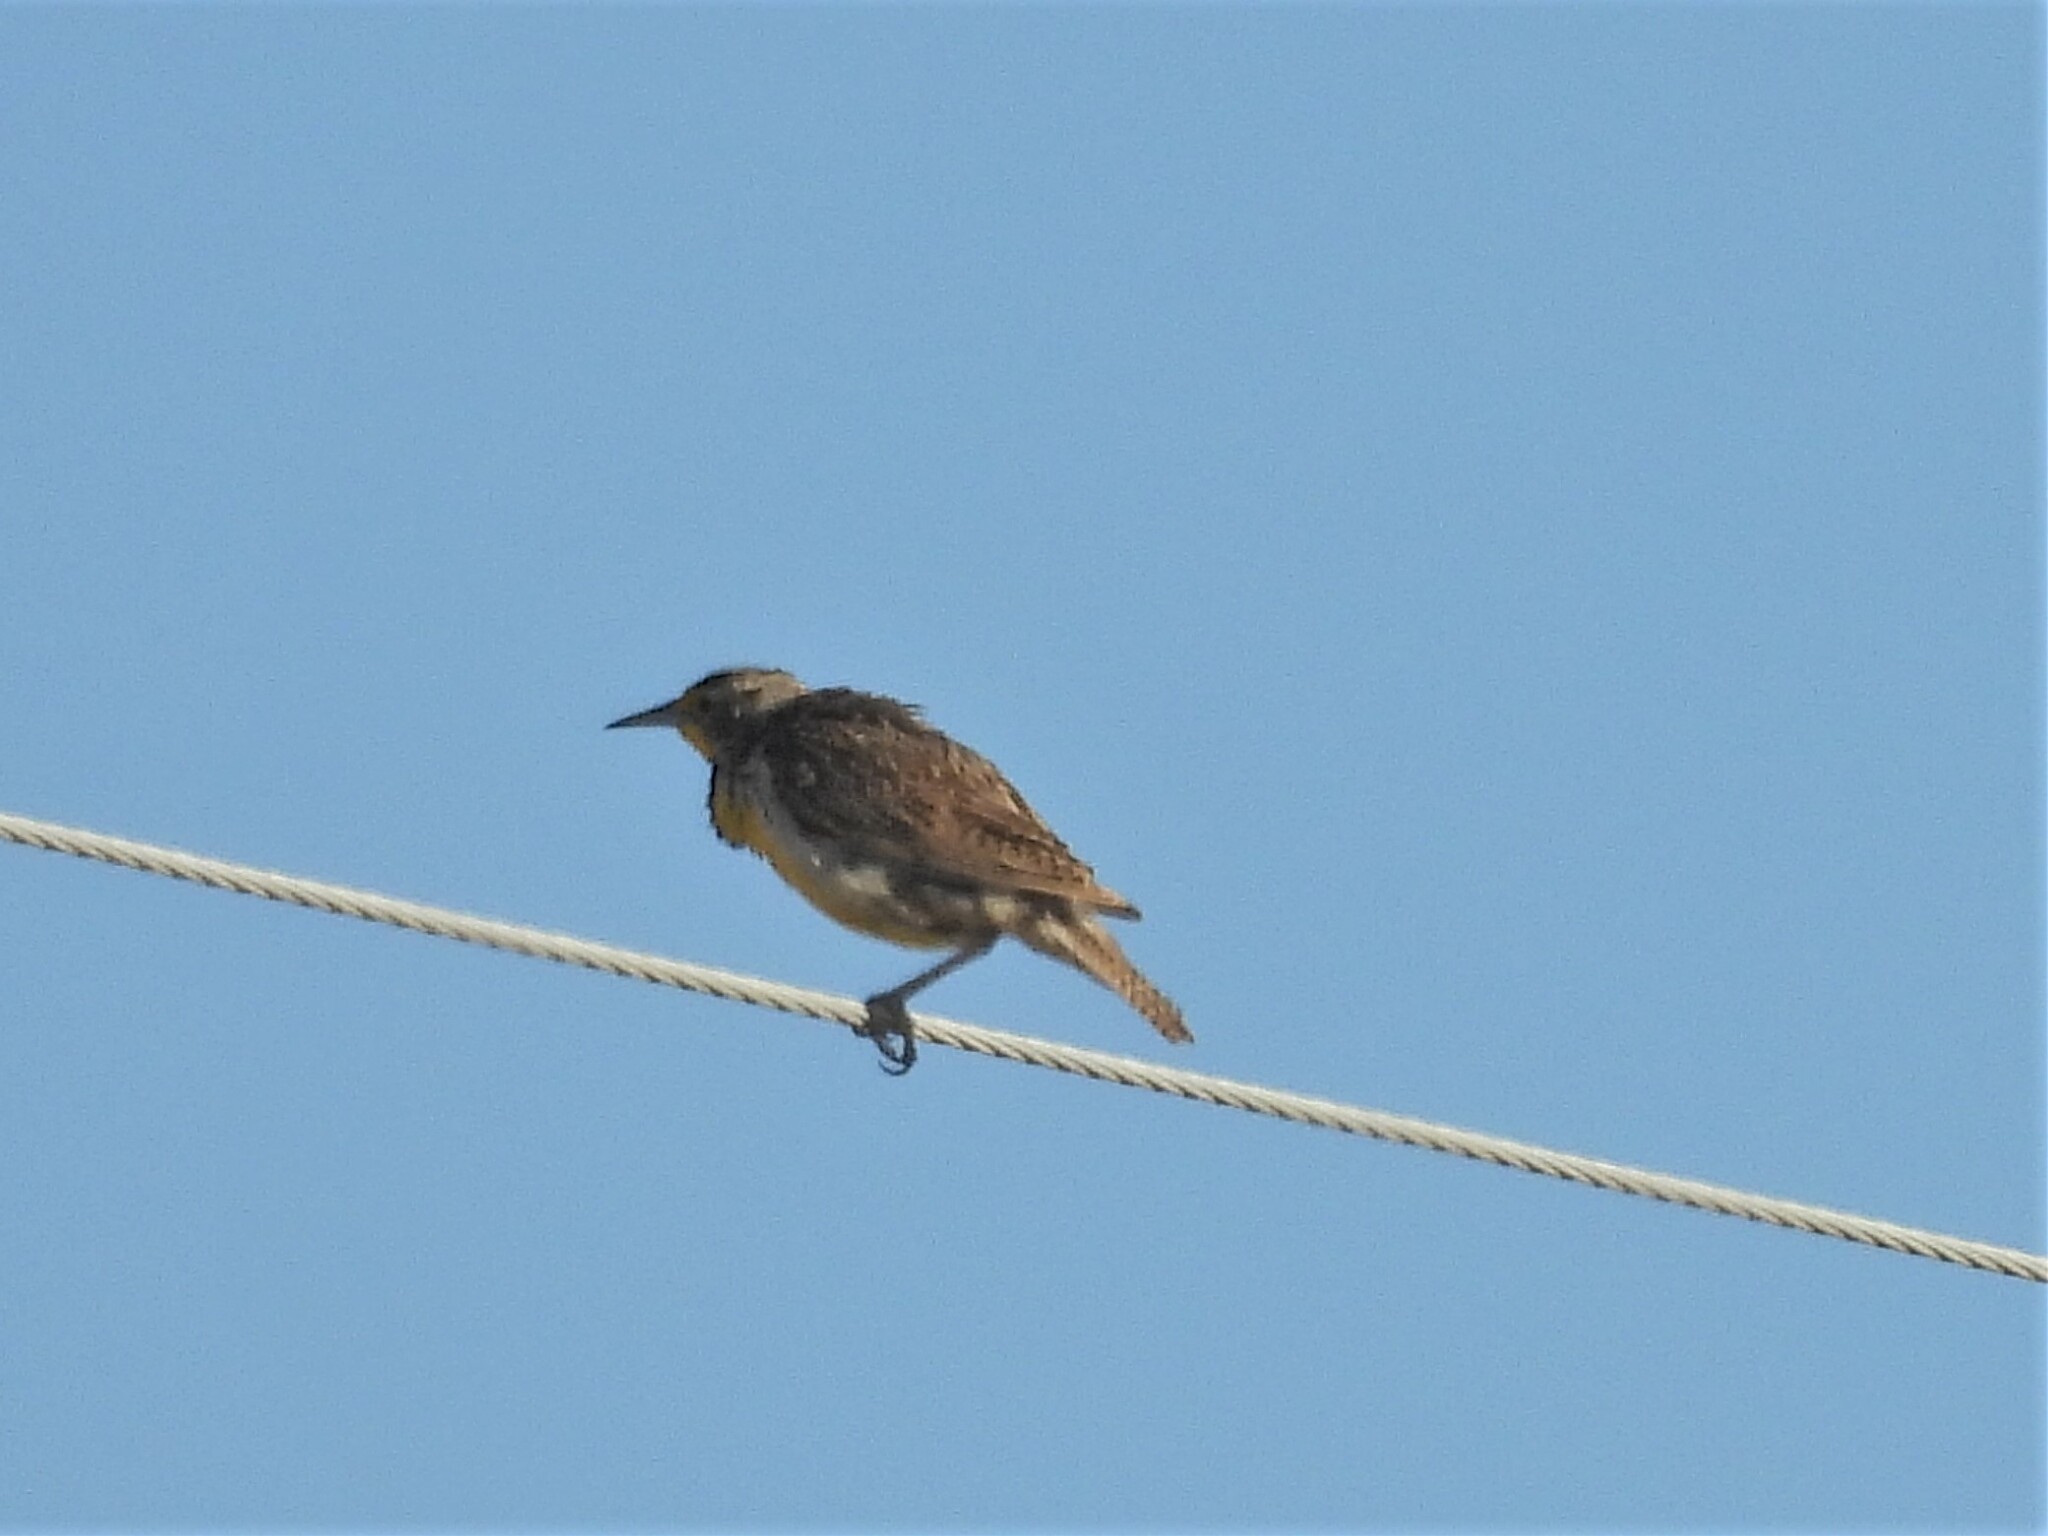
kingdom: Animalia
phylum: Chordata
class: Aves
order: Passeriformes
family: Icteridae
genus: Sturnella
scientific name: Sturnella neglecta
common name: Western meadowlark
